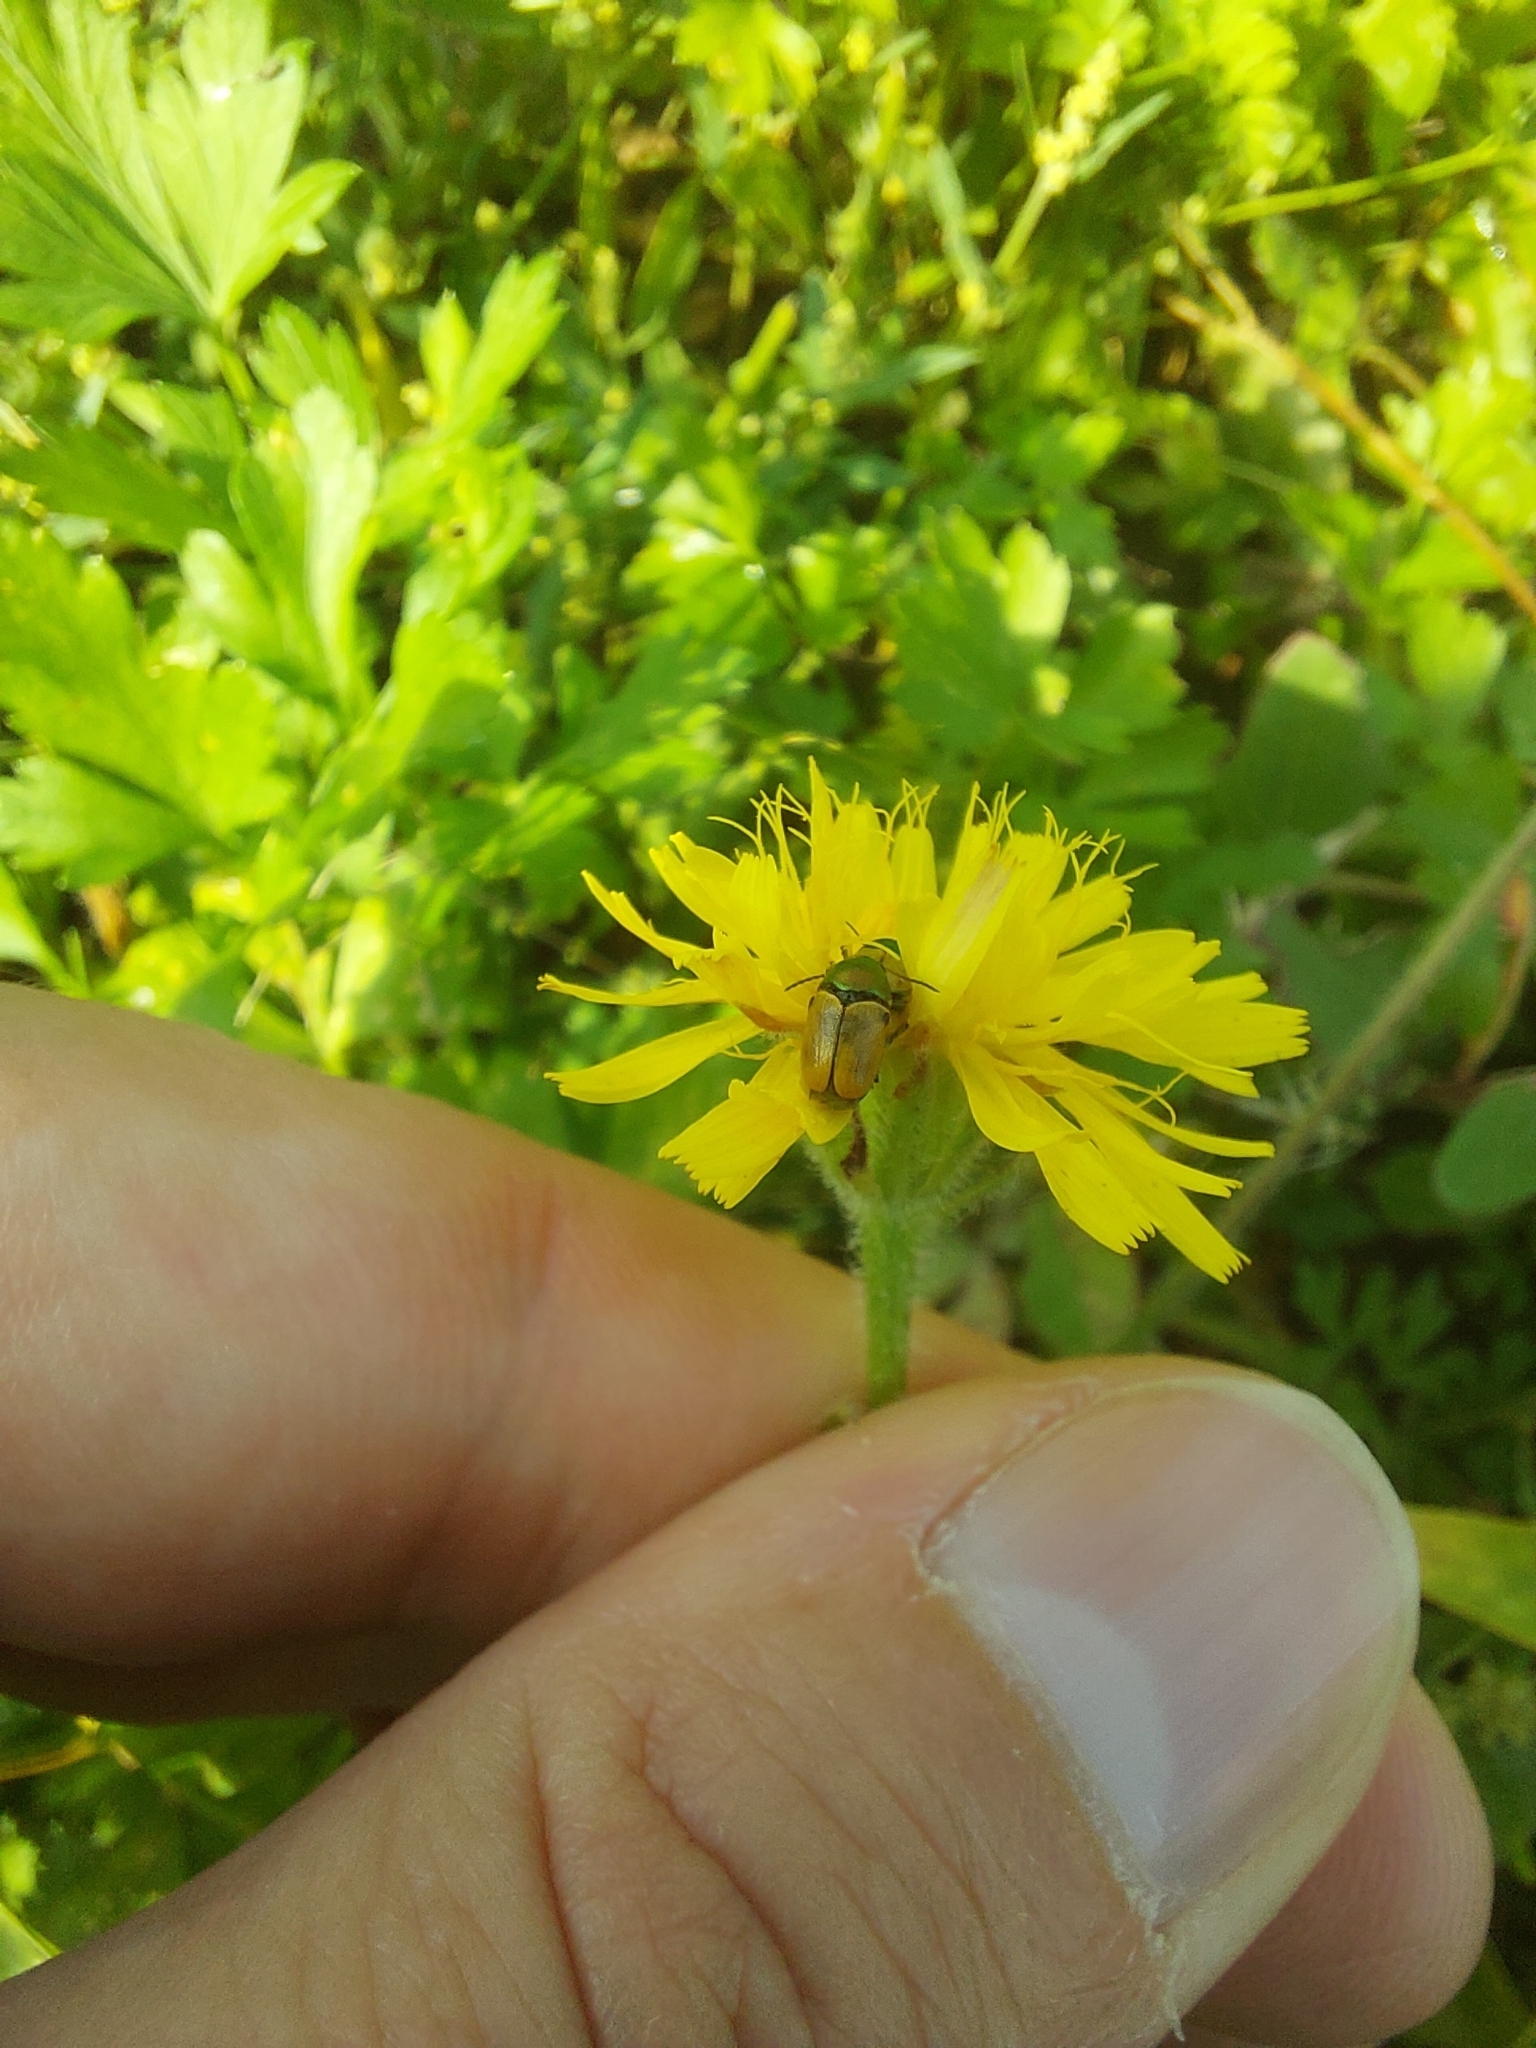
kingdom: Animalia
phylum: Arthropoda
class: Insecta
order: Coleoptera
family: Chrysomelidae
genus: Cryptocephalus
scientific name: Cryptocephalus laetus
